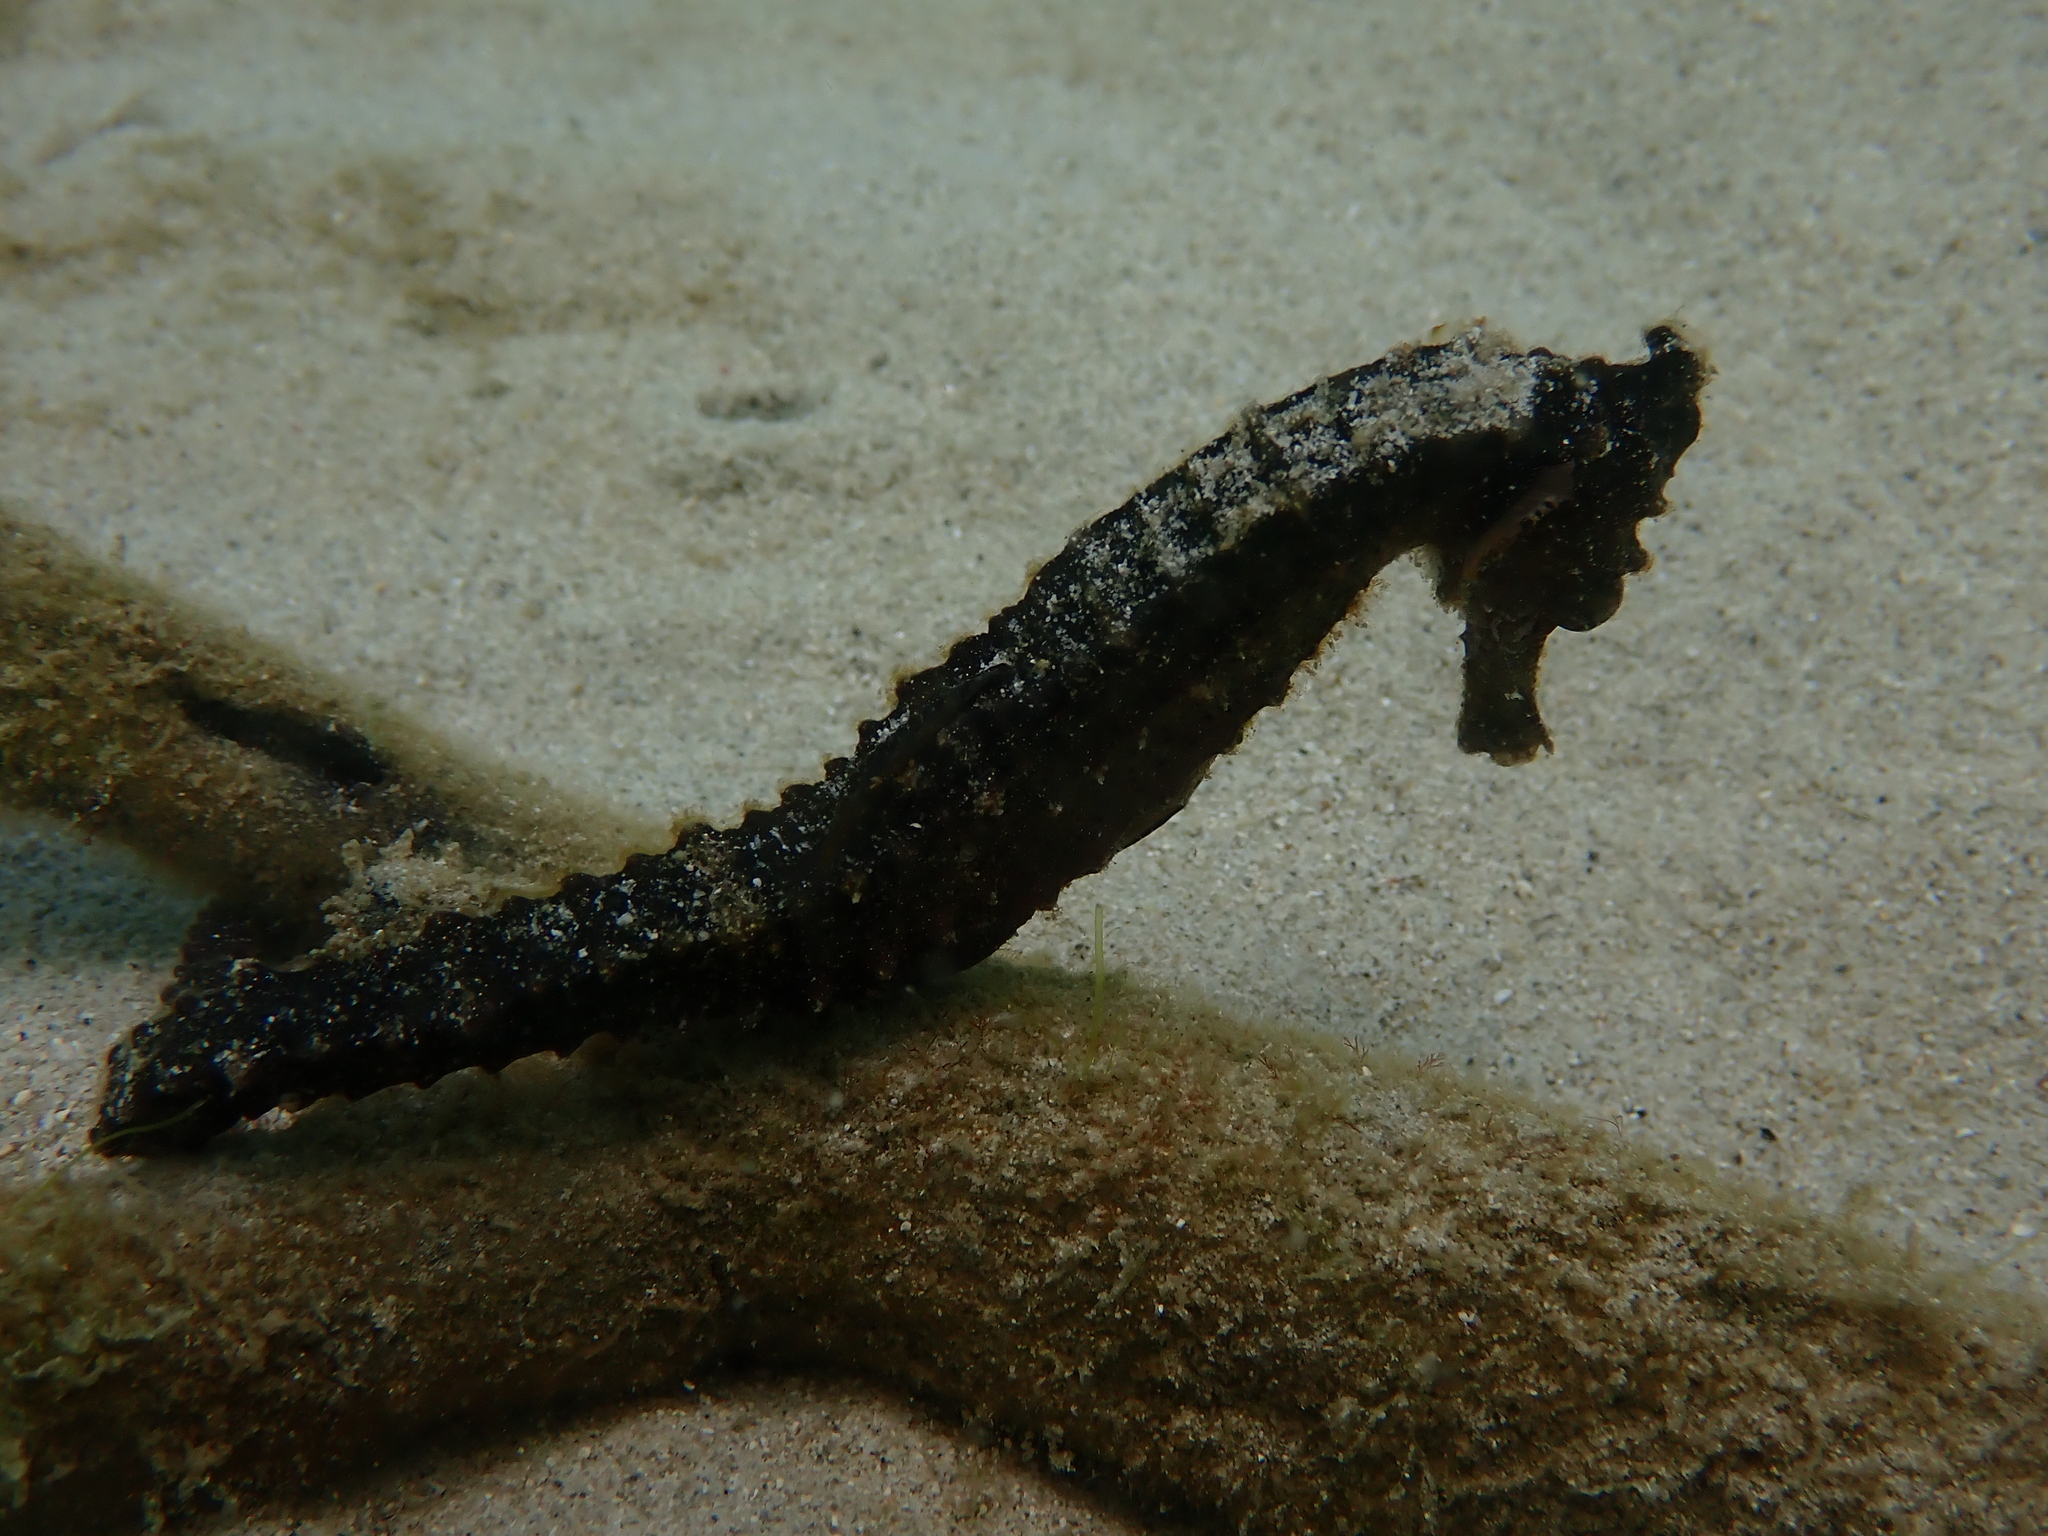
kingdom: Animalia
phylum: Chordata
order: Syngnathiformes
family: Syngnathidae
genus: Hippocampus
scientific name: Hippocampus kuda
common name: Spotted seahorse
